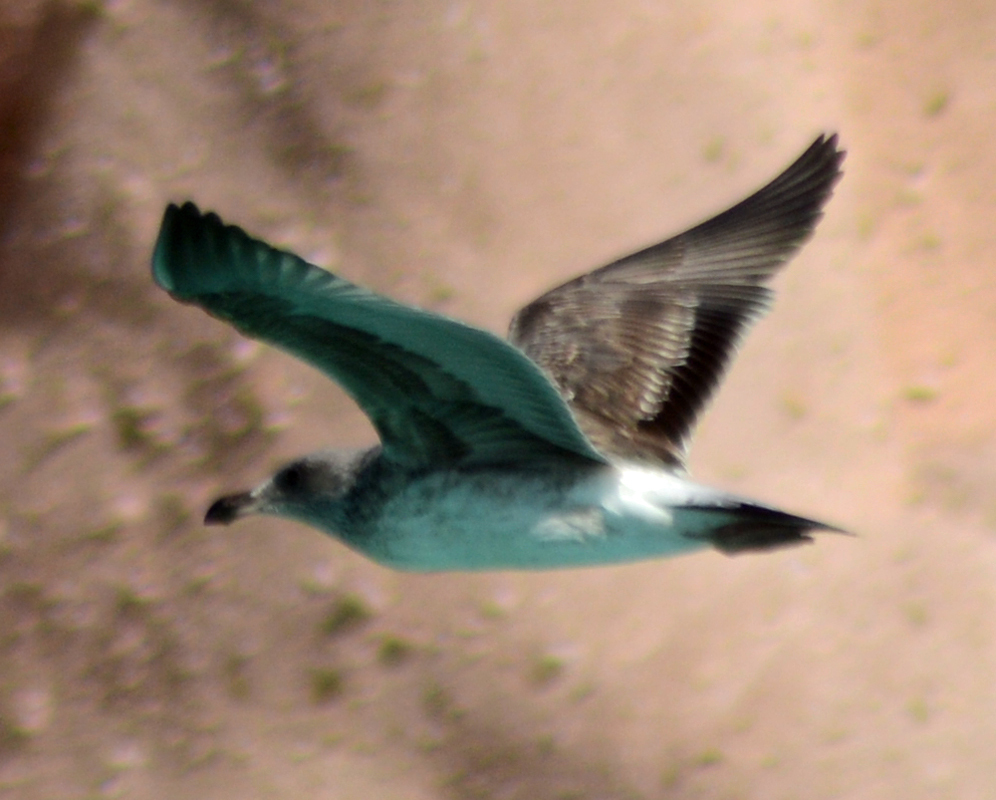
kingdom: Animalia
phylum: Chordata
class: Aves
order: Charadriiformes
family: Laridae
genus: Larus
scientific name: Larus livens
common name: Yellow-footed gull
